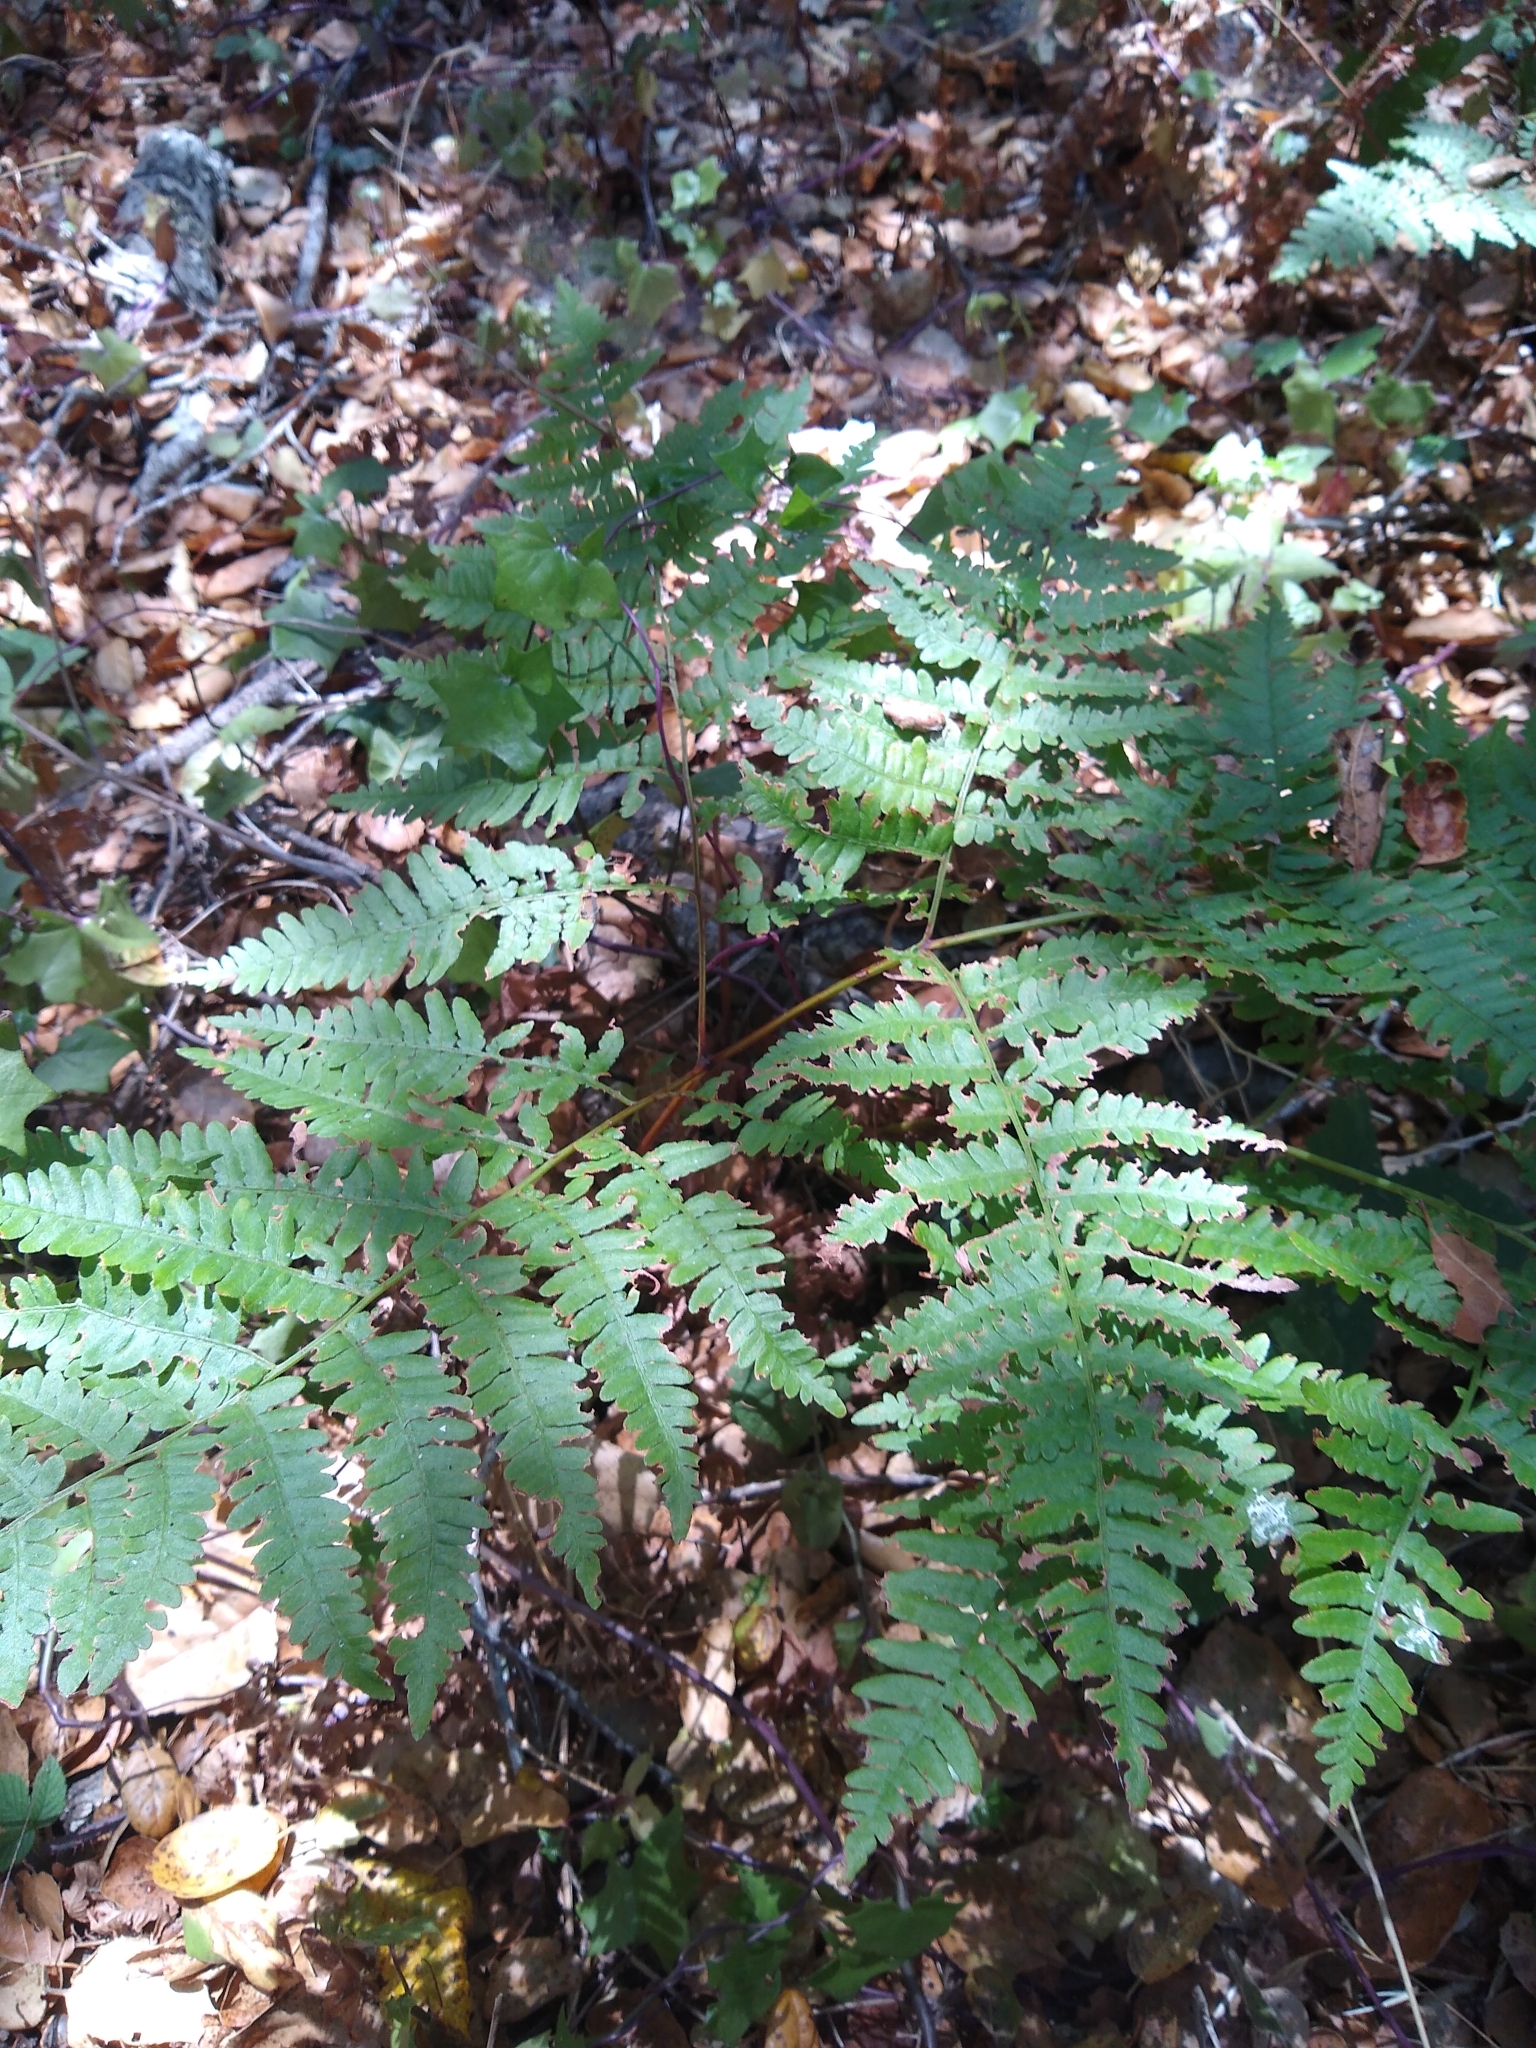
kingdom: Plantae
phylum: Tracheophyta
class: Polypodiopsida
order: Polypodiales
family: Dennstaedtiaceae
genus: Pteridium
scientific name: Pteridium aquilinum
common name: Bracken
